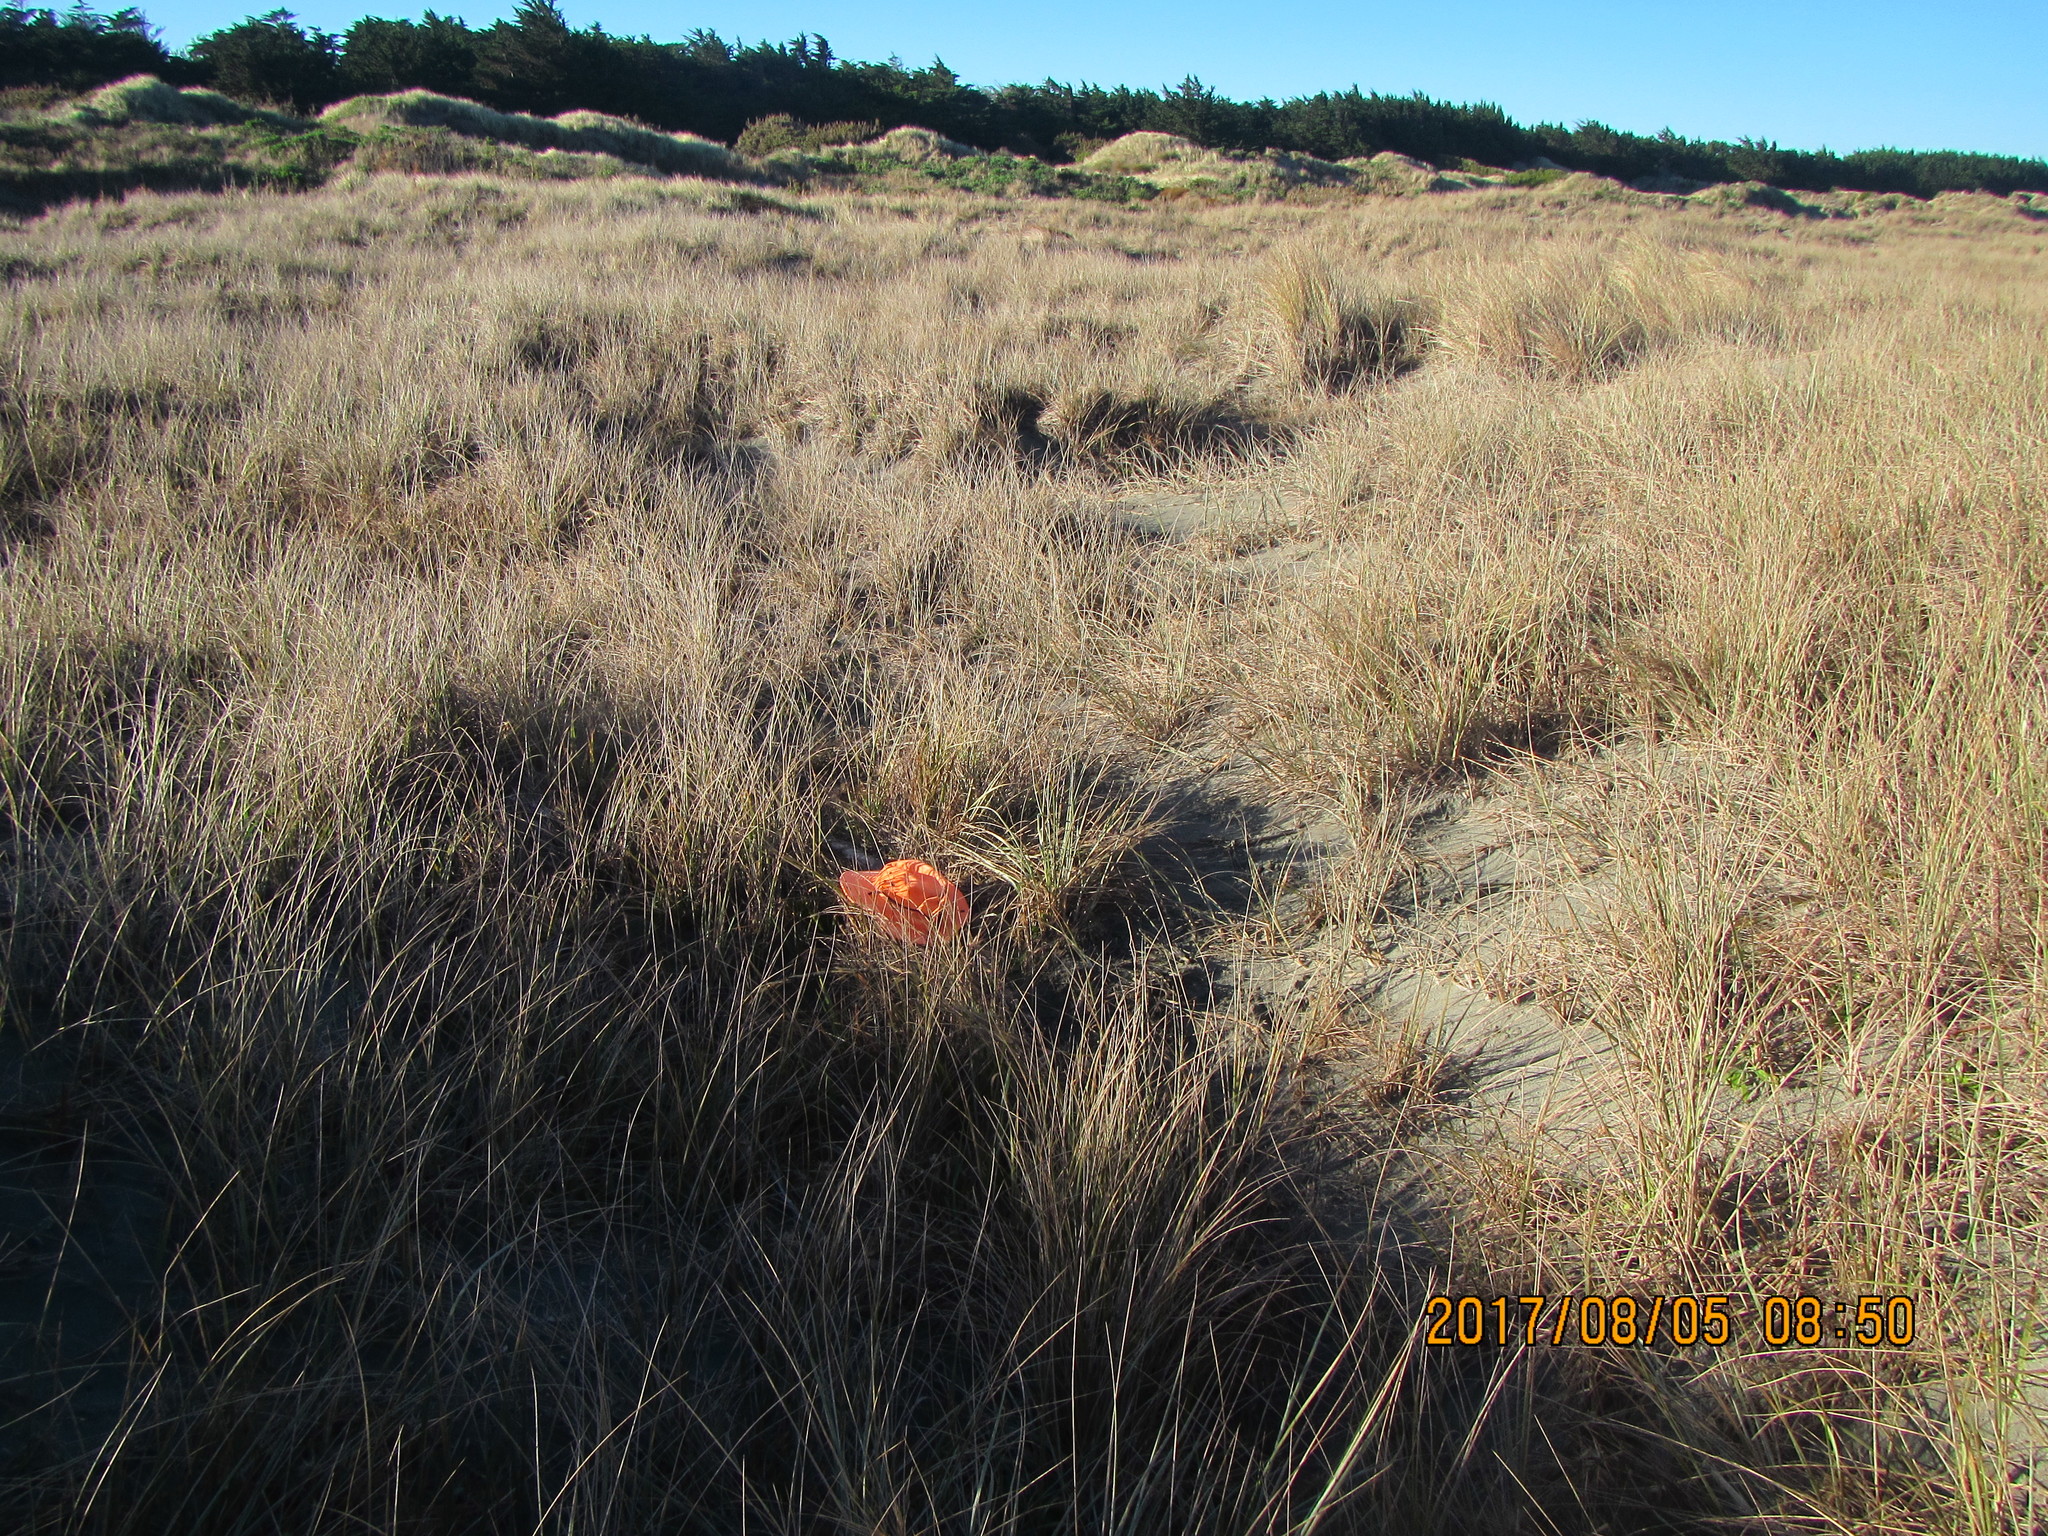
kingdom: Animalia
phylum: Arthropoda
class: Arachnida
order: Araneae
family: Porrhothelidae
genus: Porrhothele
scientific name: Porrhothele antipodiana
